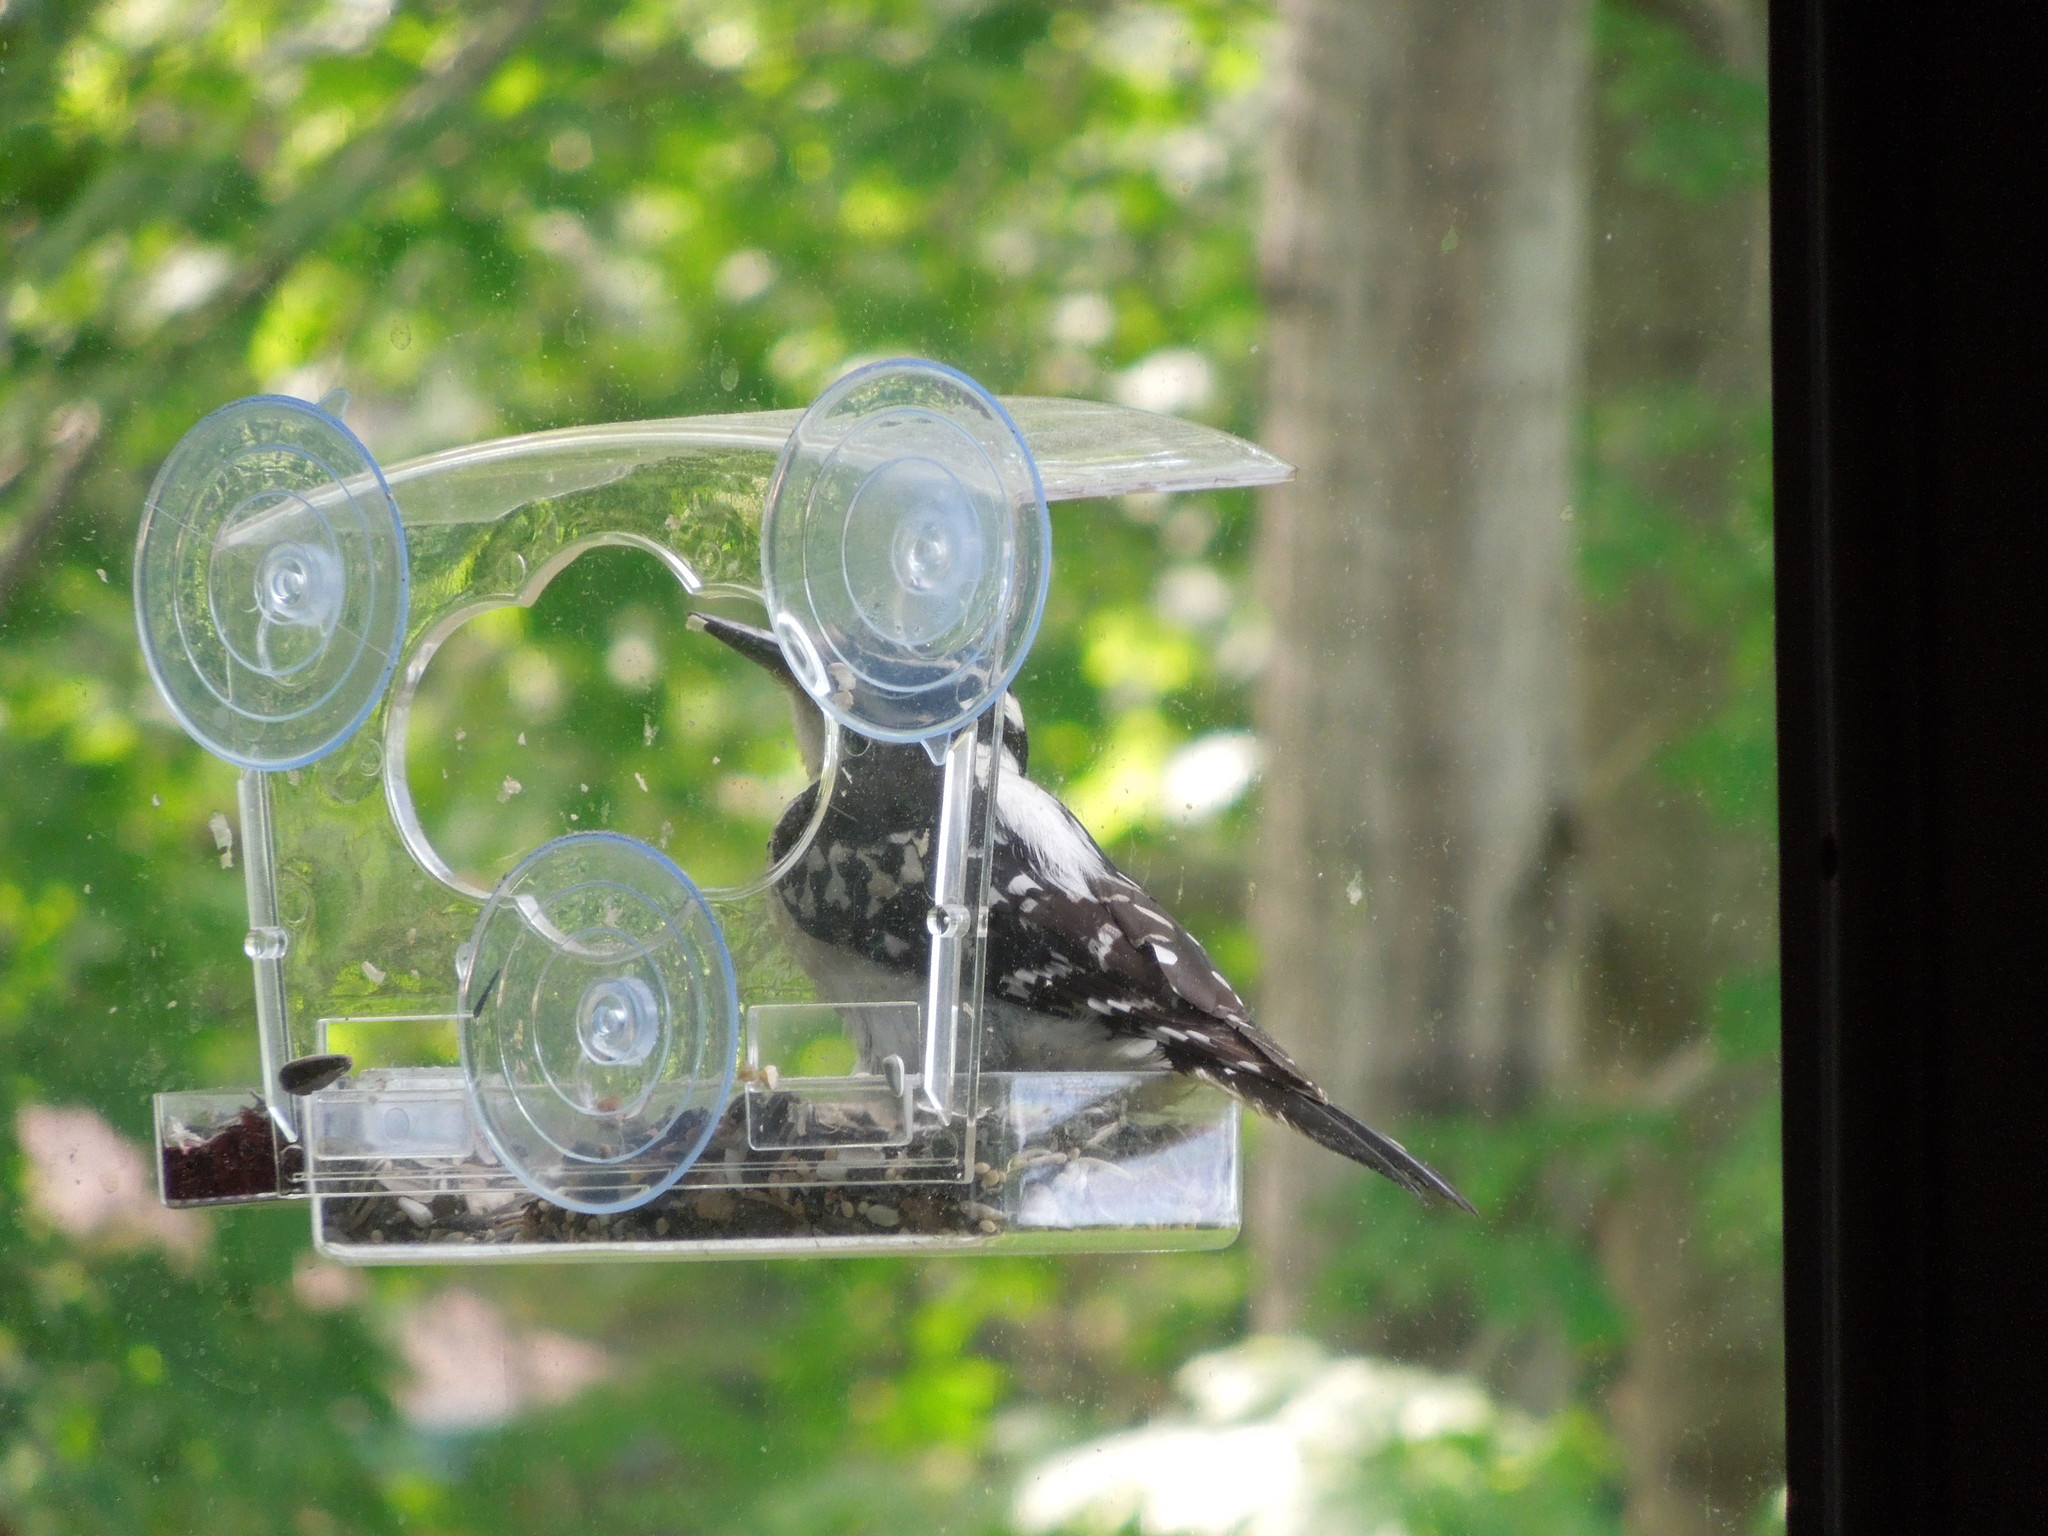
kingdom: Animalia
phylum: Chordata
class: Aves
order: Piciformes
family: Picidae
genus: Dryobates
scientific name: Dryobates pubescens
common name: Downy woodpecker
